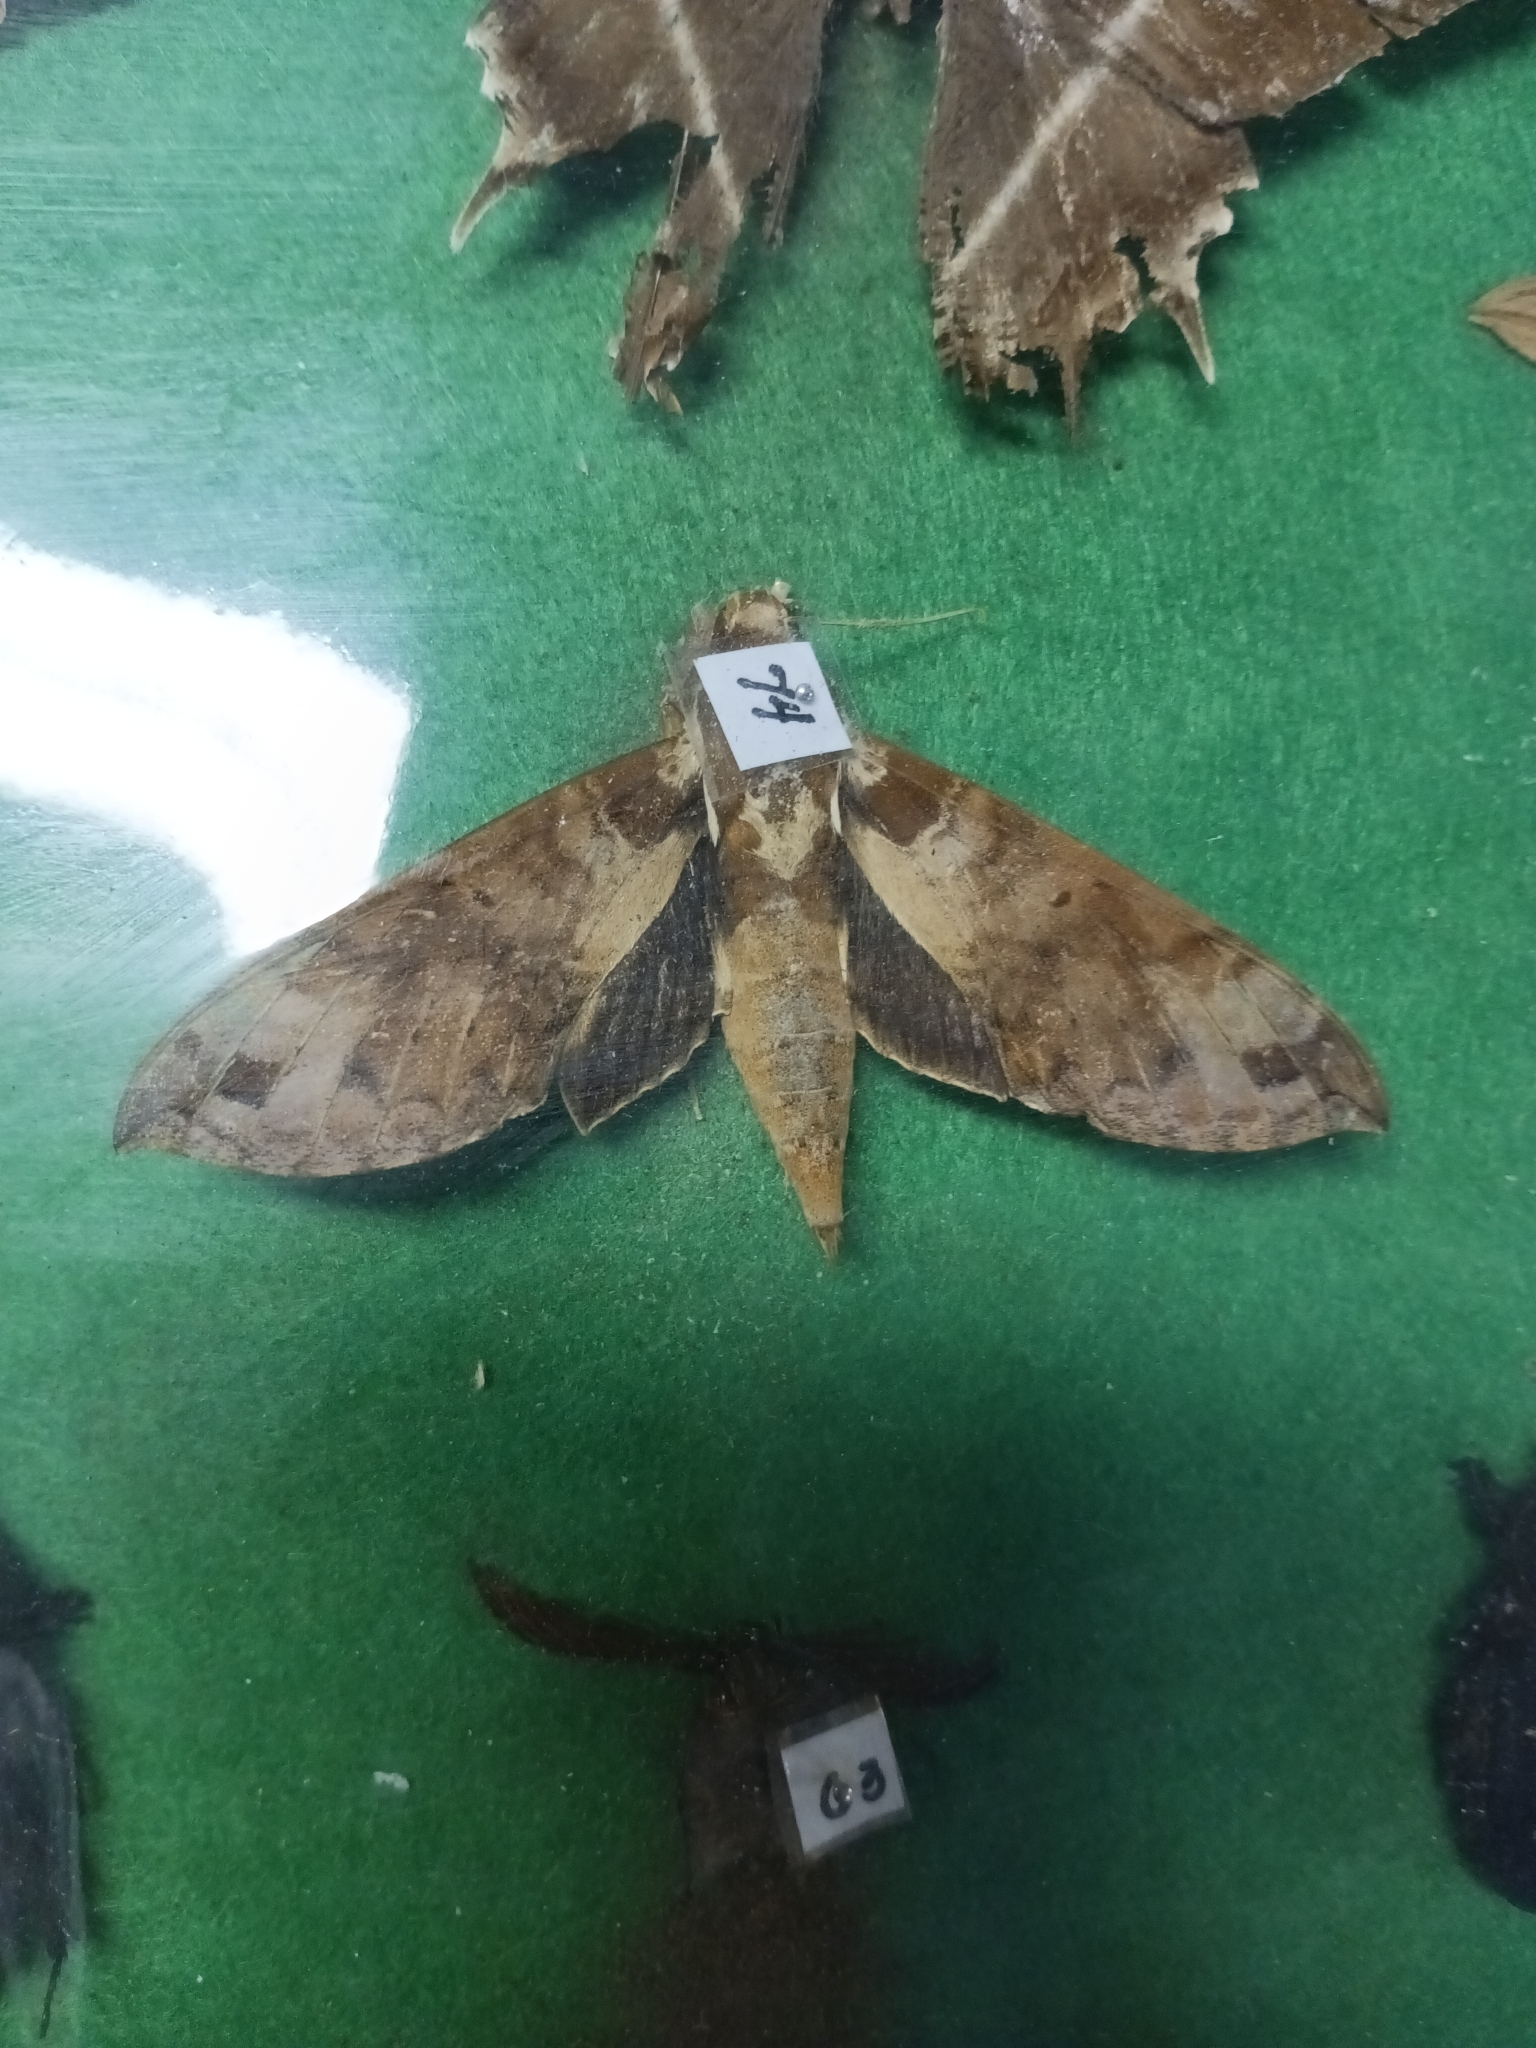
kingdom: Animalia
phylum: Arthropoda
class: Insecta
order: Lepidoptera
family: Sphingidae
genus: Cechenena
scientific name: Cechenena helops
